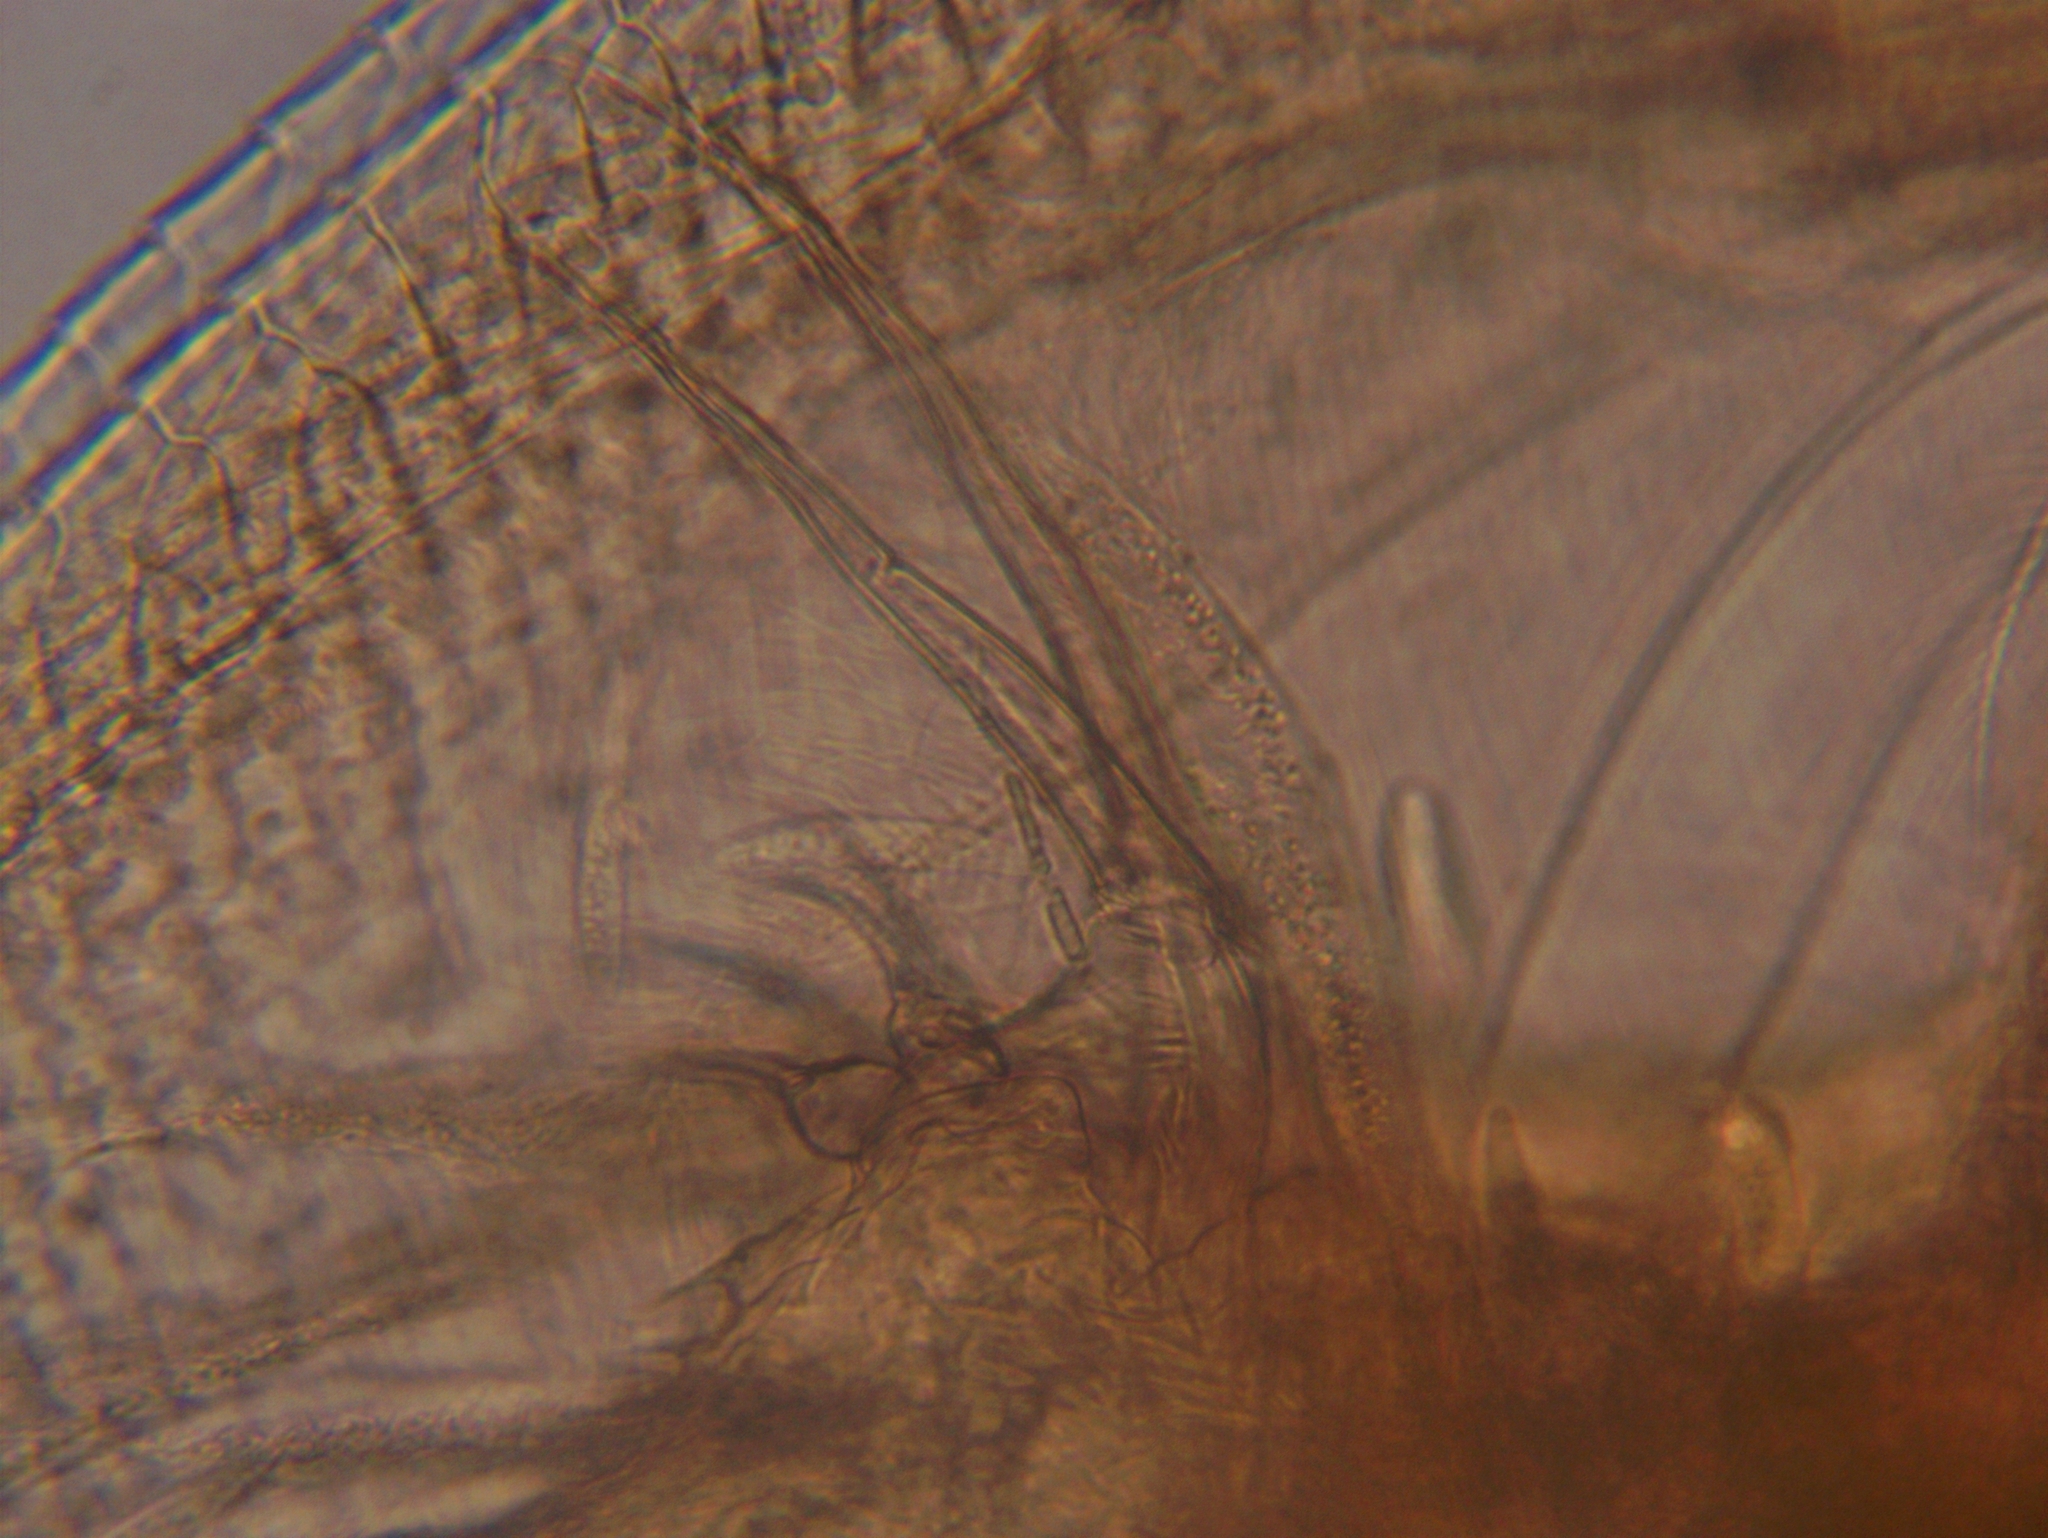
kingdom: Animalia
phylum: Arthropoda
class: Branchiopoda
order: Diplostraca
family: Daphniidae
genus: Simocephalus
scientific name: Simocephalus exspinosus
